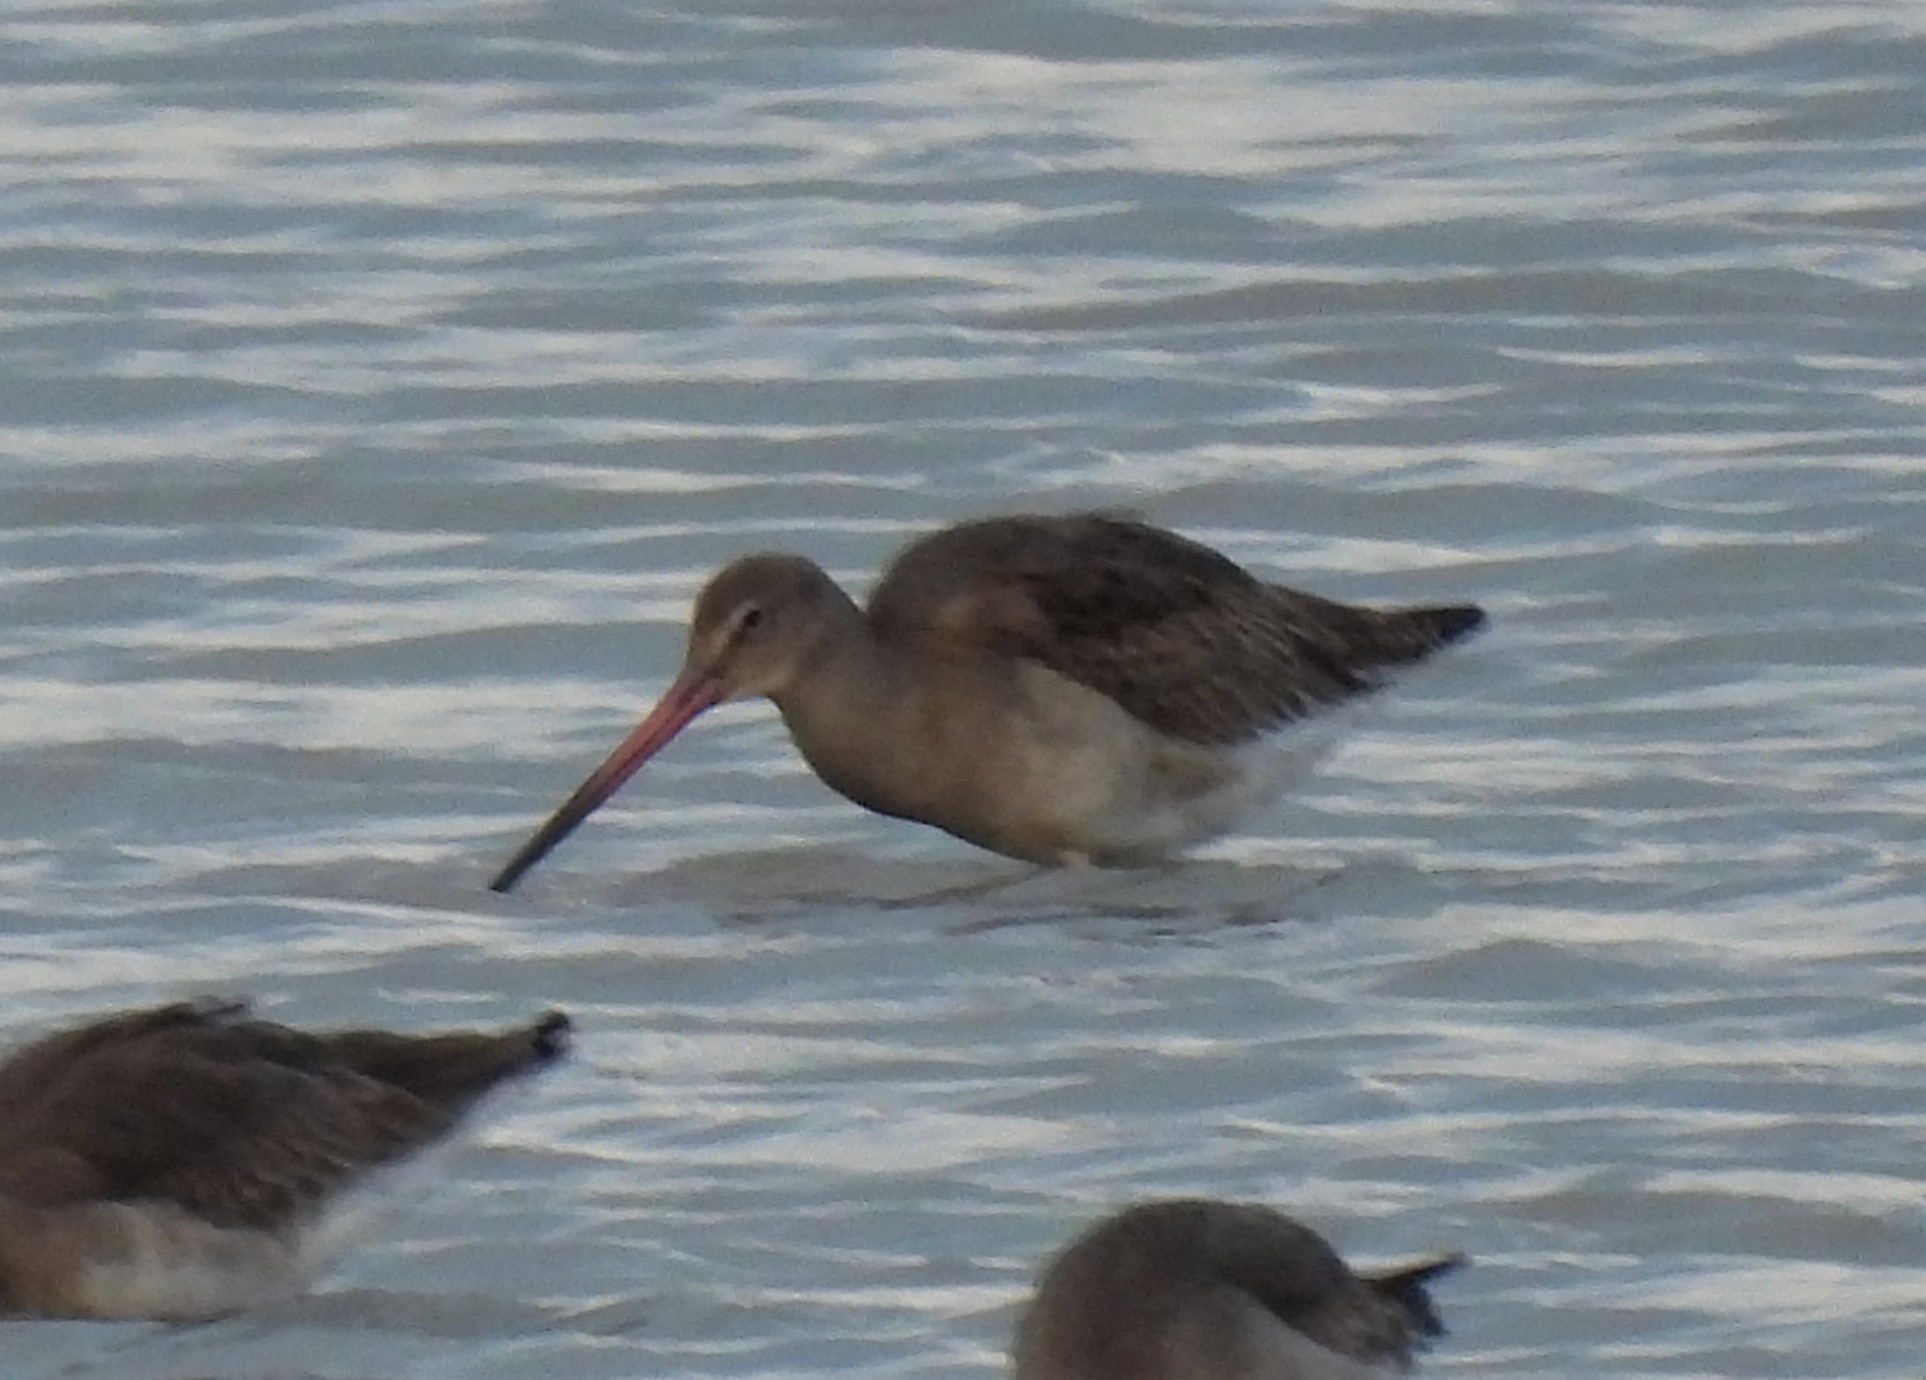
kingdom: Animalia
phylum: Chordata
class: Aves
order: Charadriiformes
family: Scolopacidae
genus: Limosa
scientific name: Limosa limosa
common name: Black-tailed godwit
